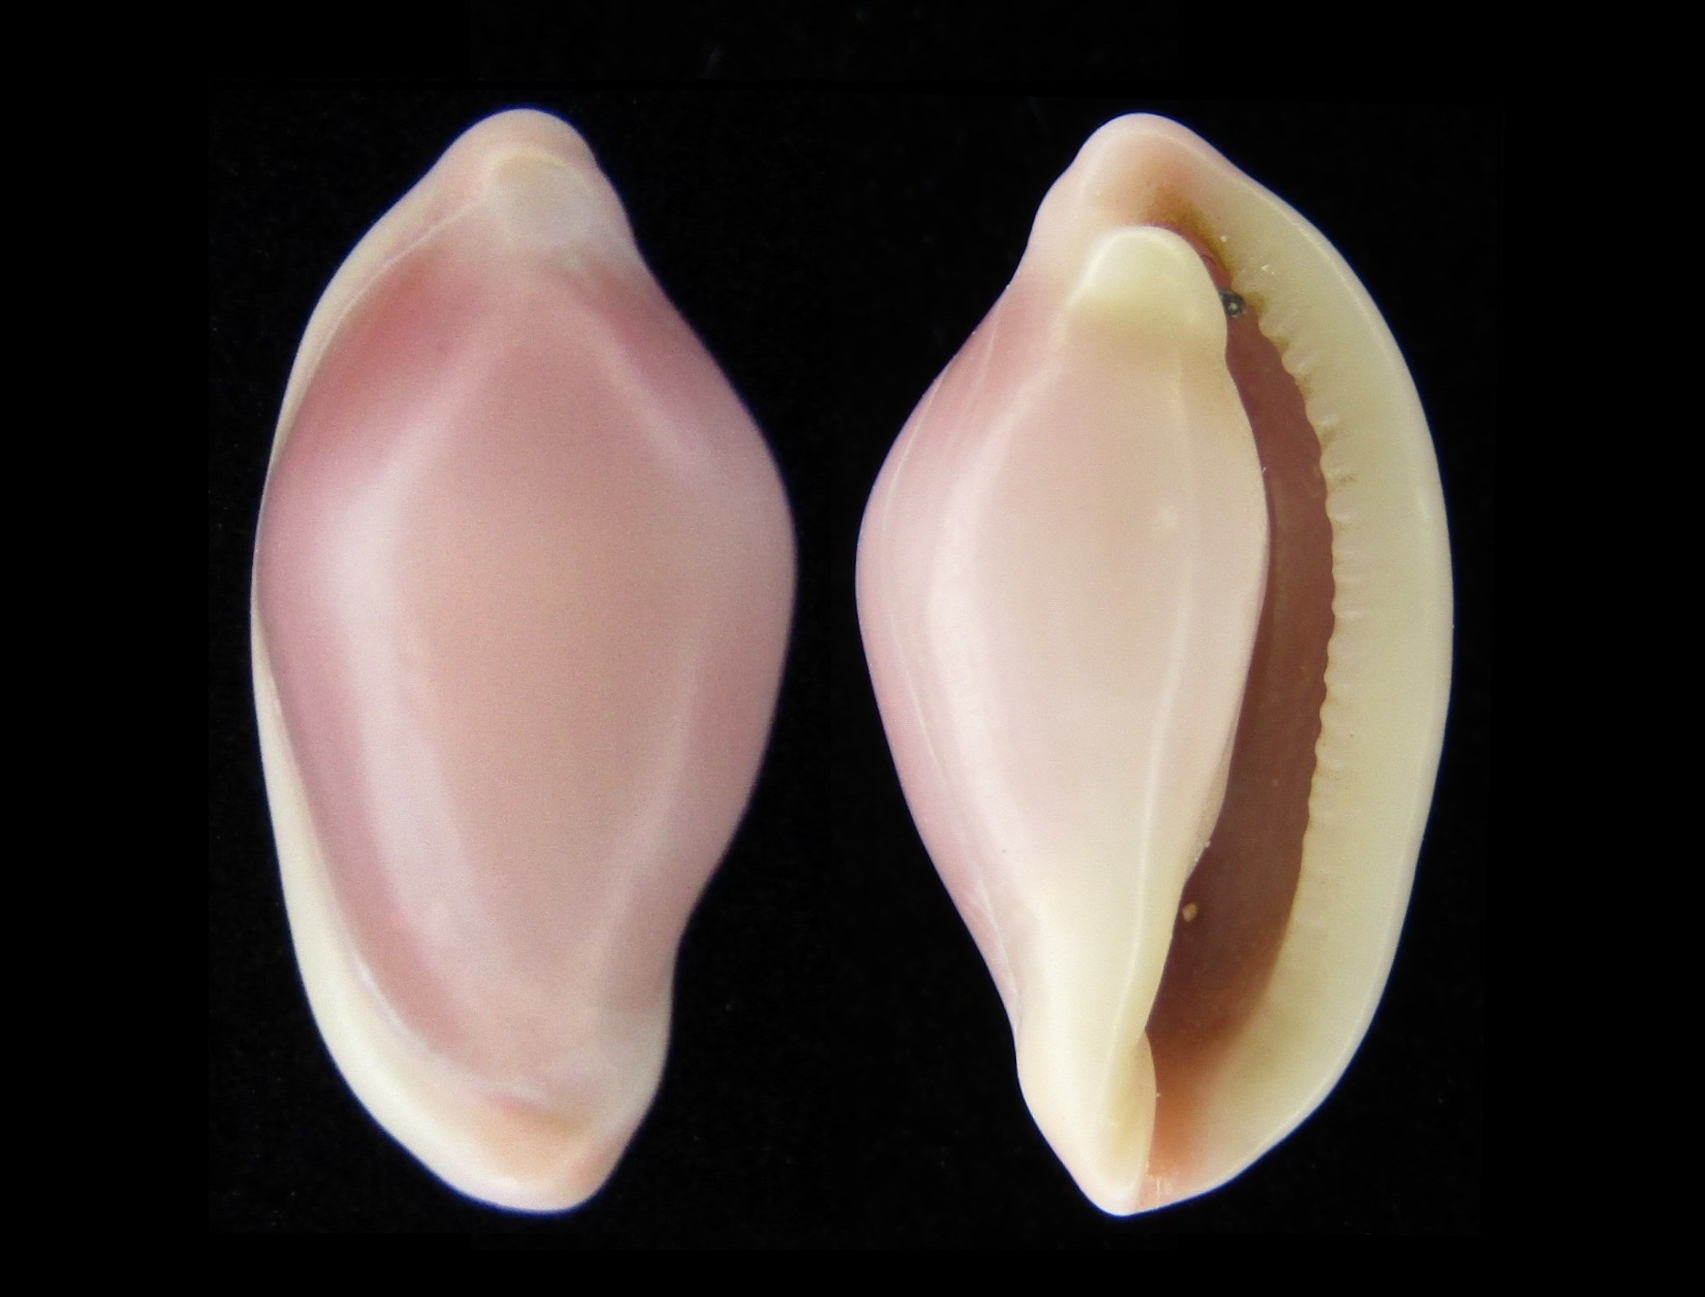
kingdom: Animalia
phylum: Mollusca
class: Gastropoda
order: Littorinimorpha
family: Ovulidae
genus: Sandalia
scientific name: Sandalia triticea
